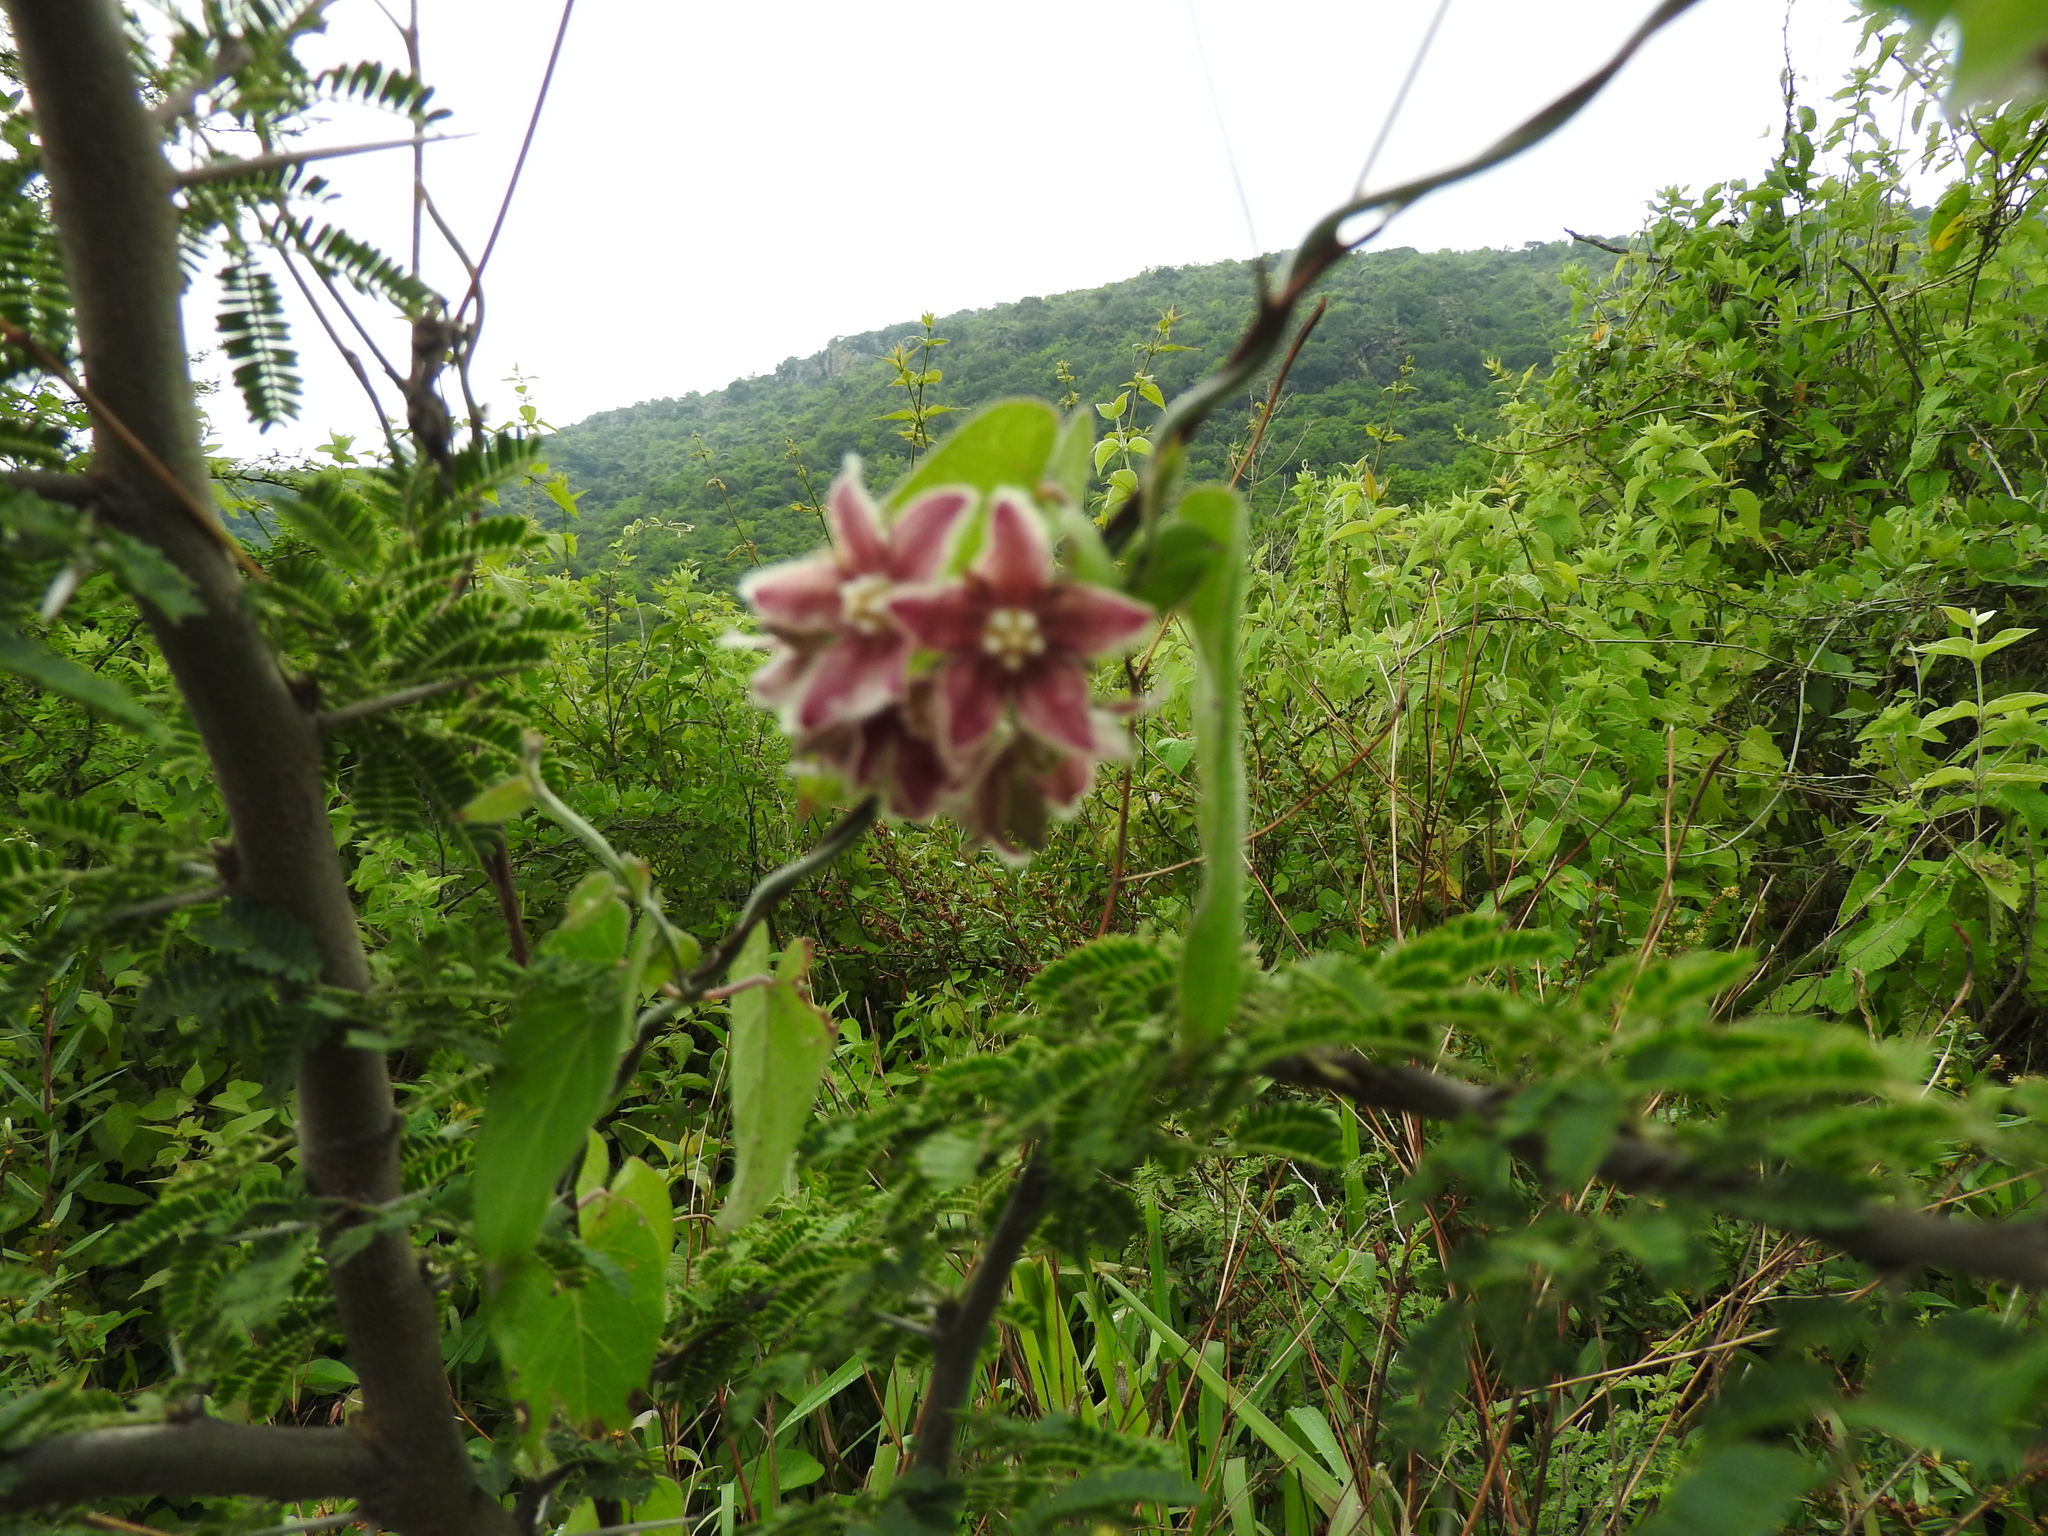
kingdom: Plantae
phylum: Tracheophyta
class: Magnoliopsida
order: Gentianales
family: Apocynaceae
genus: Funastrum
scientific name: Funastrum elegans
